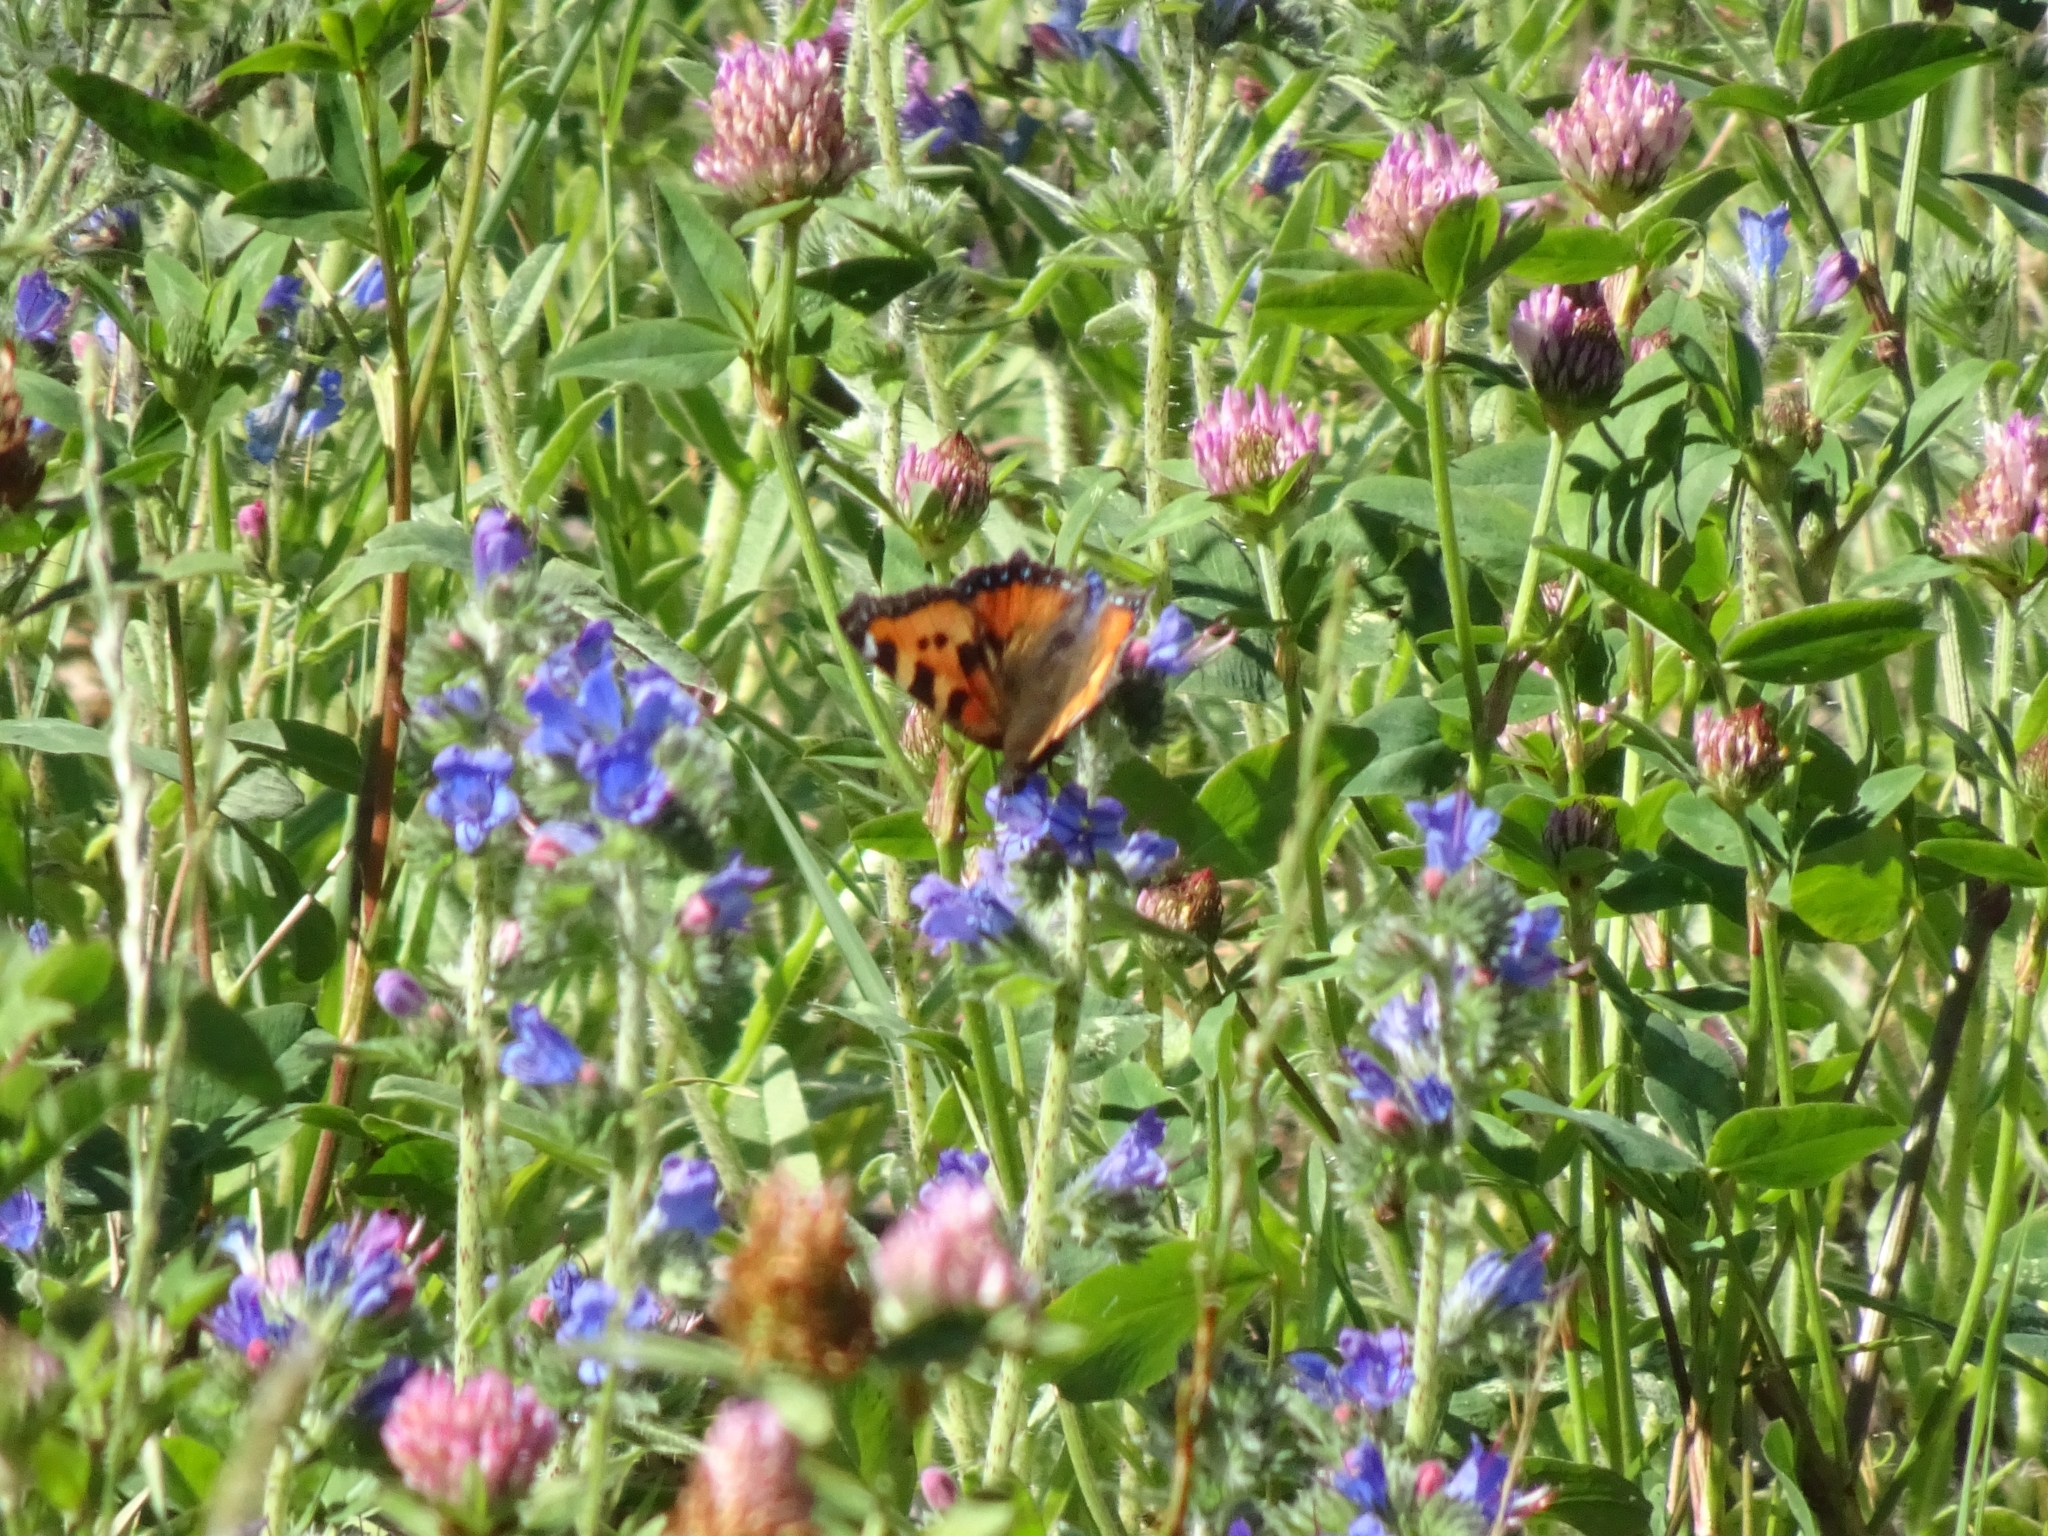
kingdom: Animalia
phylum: Arthropoda
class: Insecta
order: Lepidoptera
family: Nymphalidae
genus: Aglais
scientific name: Aglais urticae
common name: Small tortoiseshell
